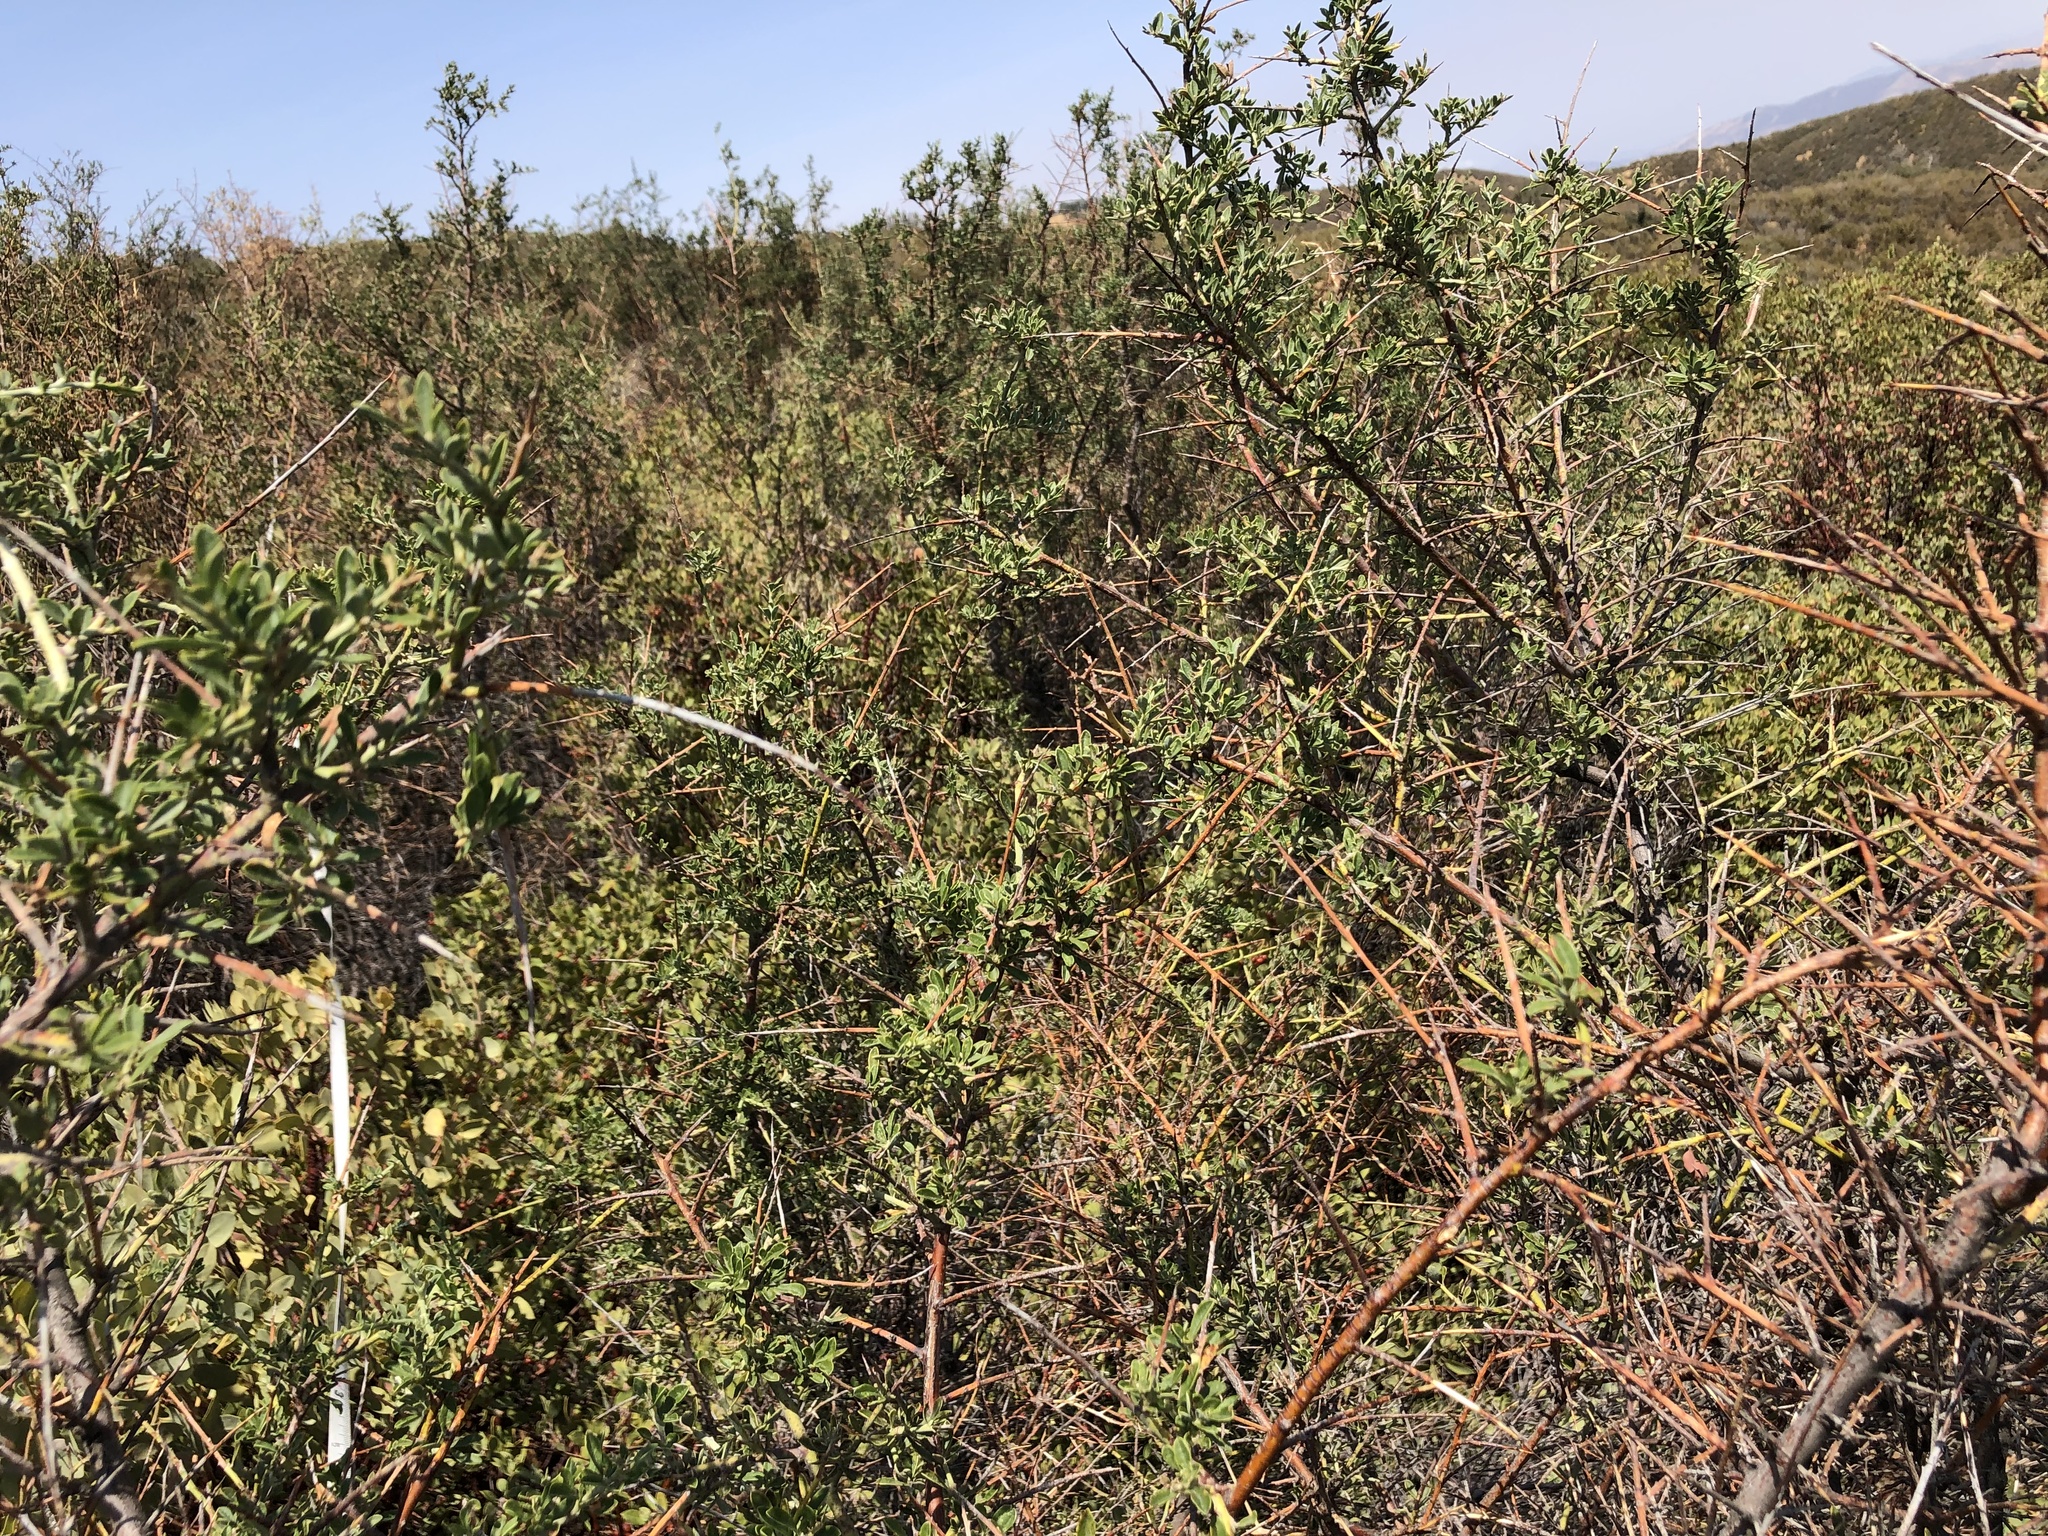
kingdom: Plantae
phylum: Tracheophyta
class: Magnoliopsida
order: Fabales
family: Fabaceae
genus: Pickeringia
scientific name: Pickeringia montana
